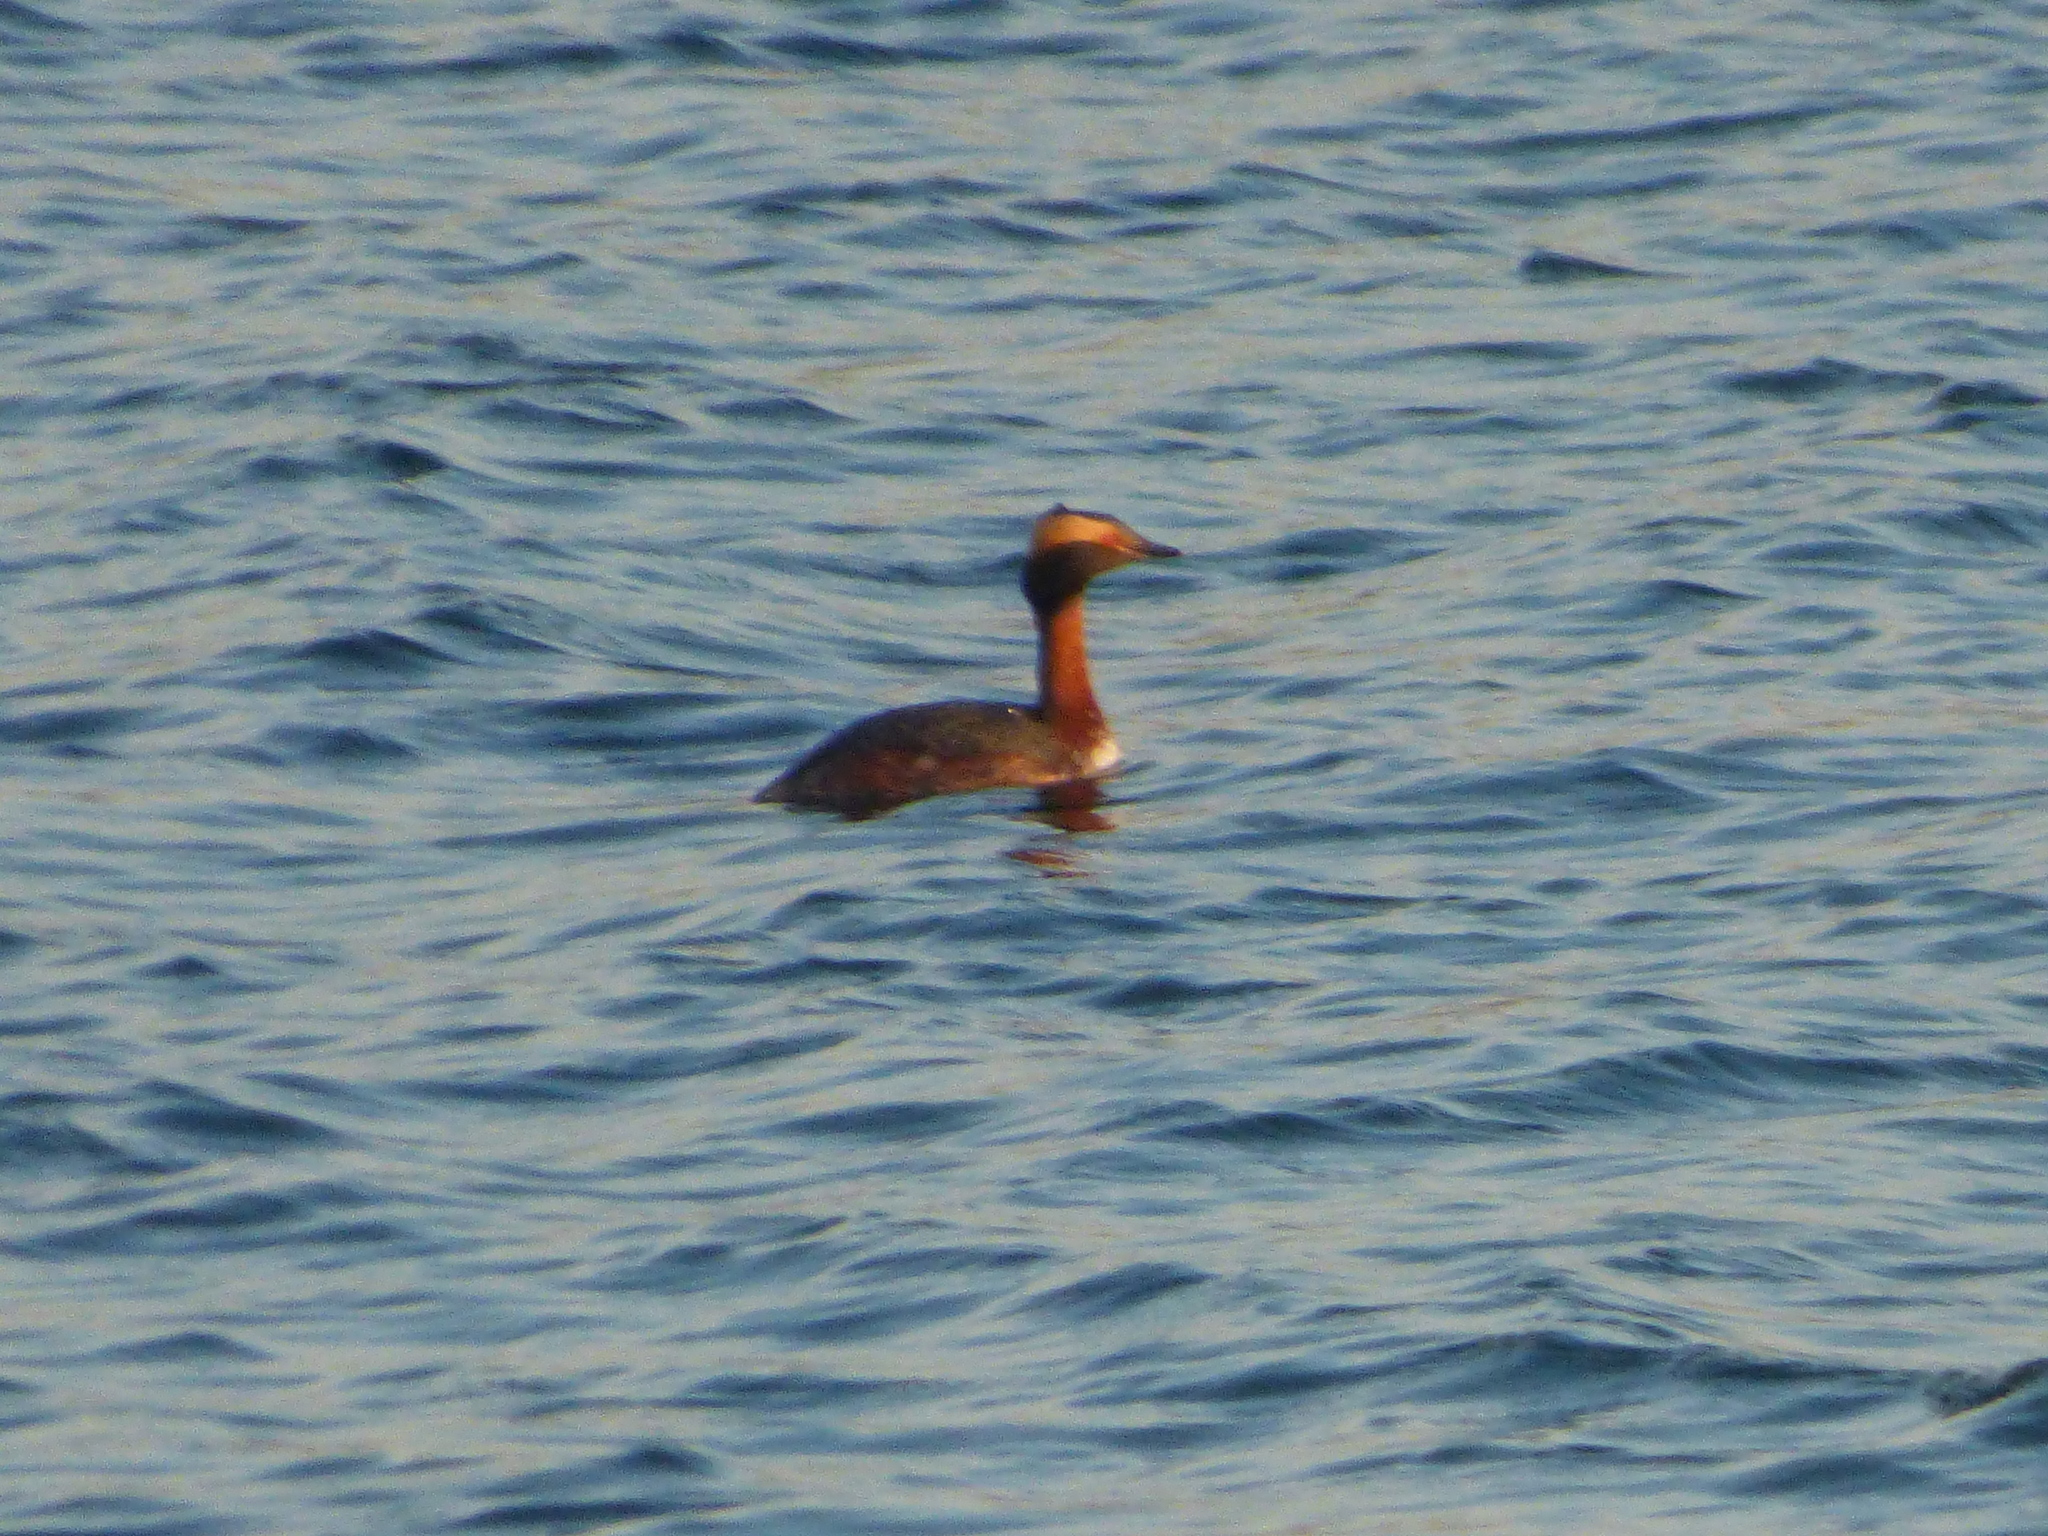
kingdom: Animalia
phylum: Chordata
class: Aves
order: Podicipediformes
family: Podicipedidae
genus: Podiceps
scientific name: Podiceps auritus
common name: Horned grebe
